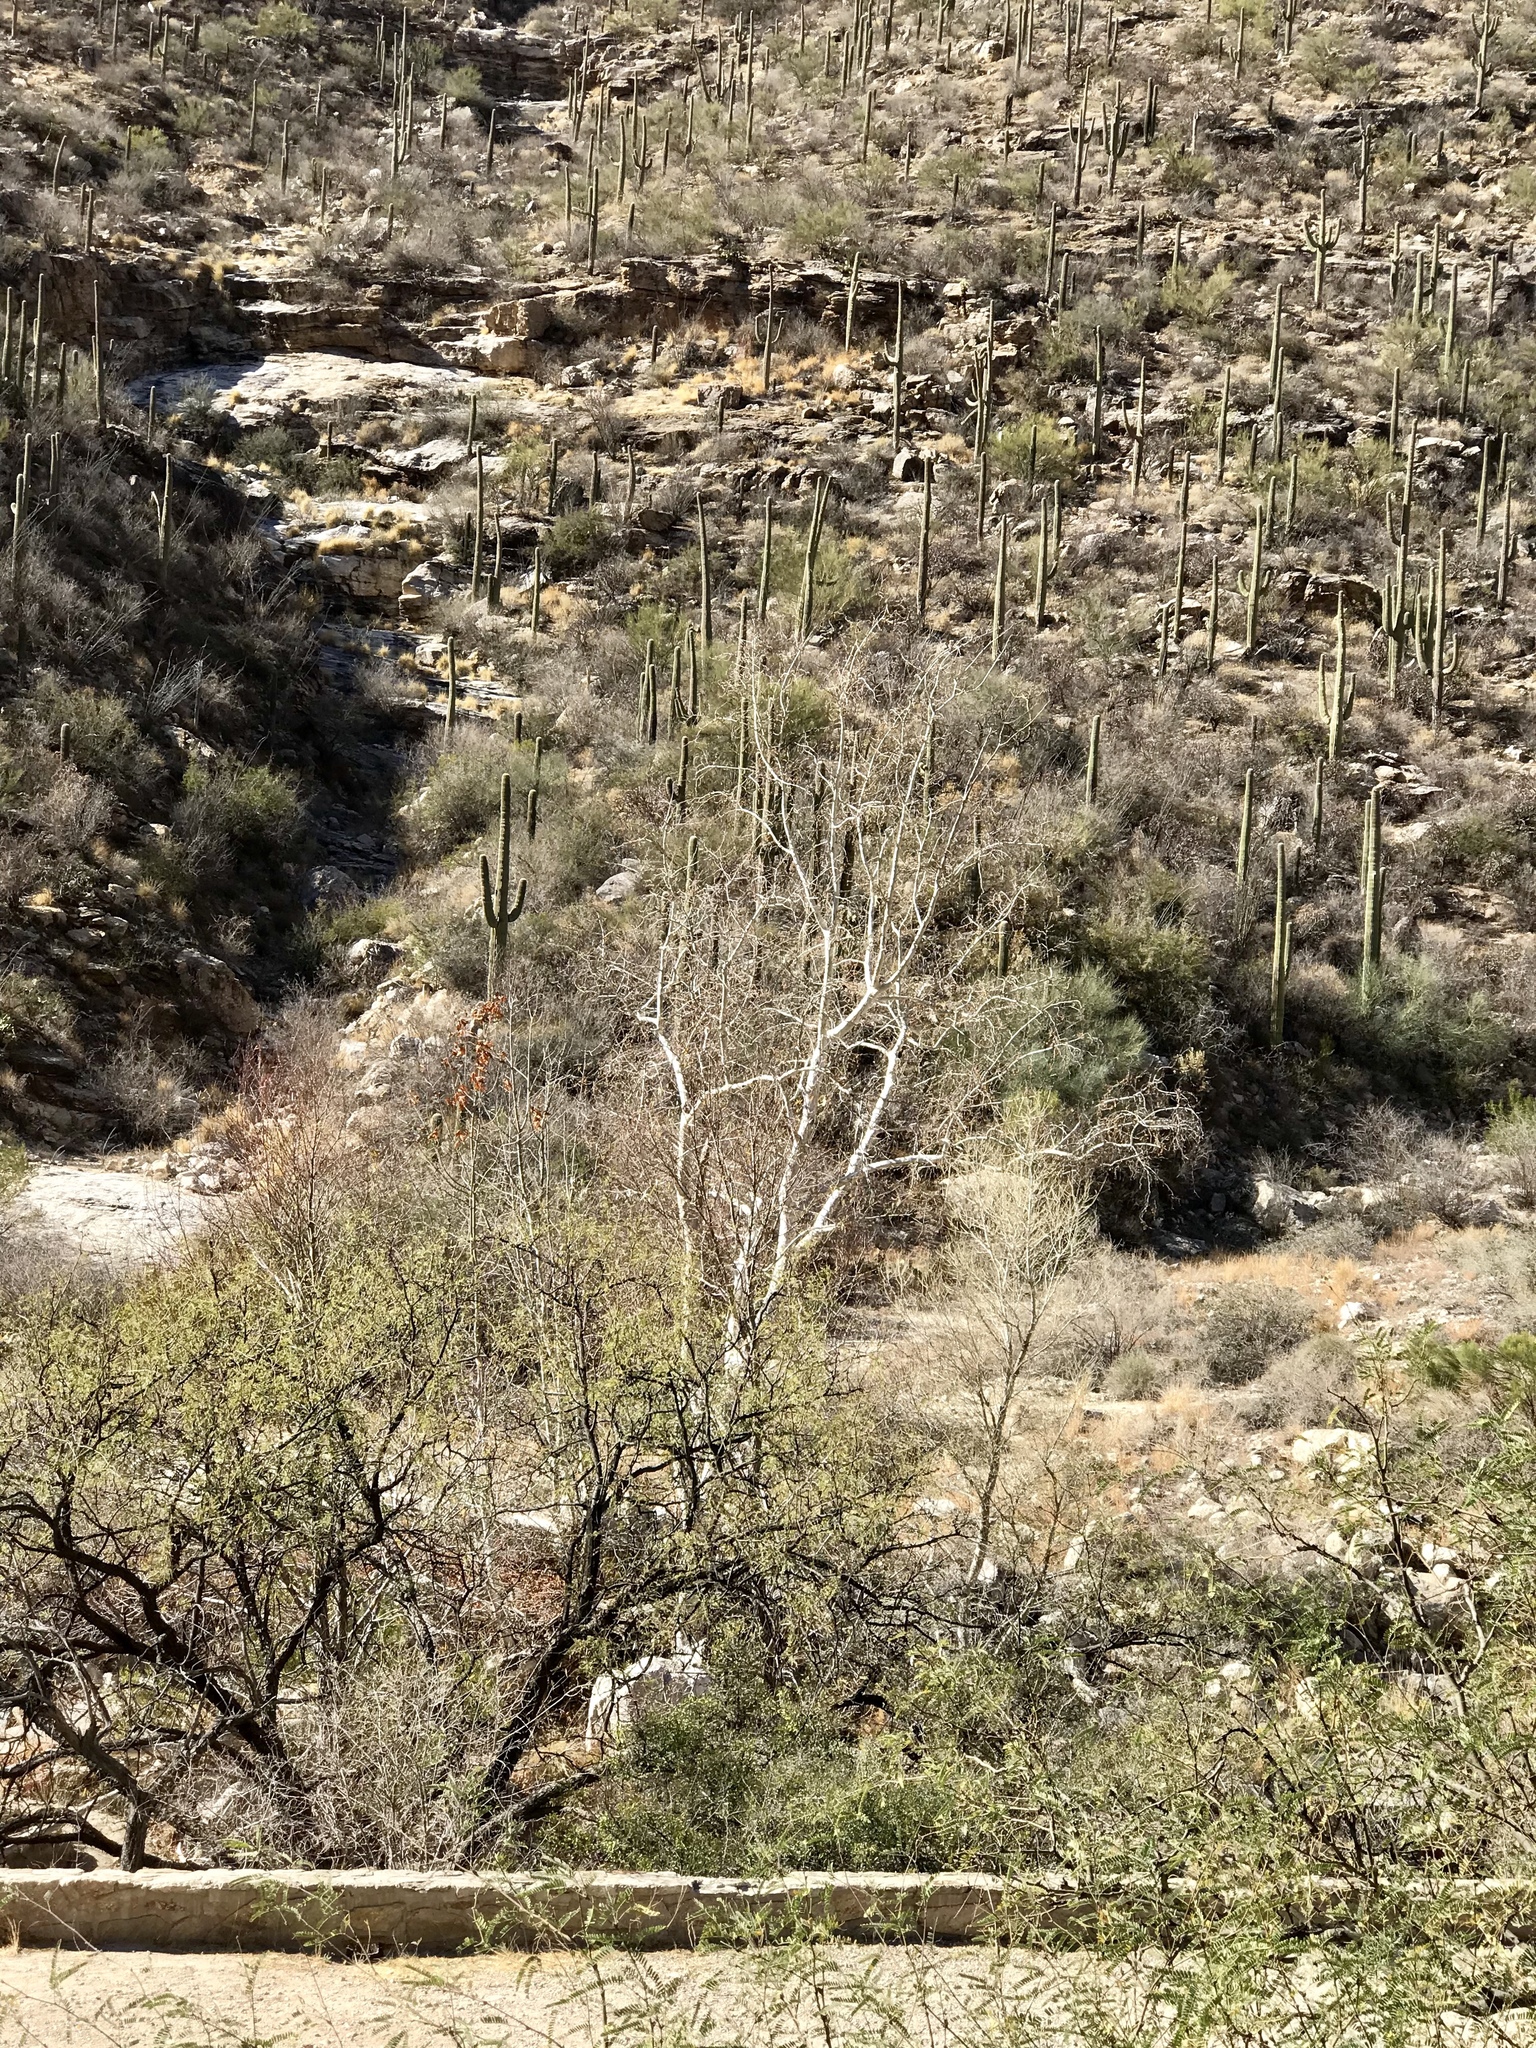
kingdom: Plantae
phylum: Tracheophyta
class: Magnoliopsida
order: Proteales
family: Platanaceae
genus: Platanus
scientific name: Platanus wrightii
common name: Arizona sycamore
